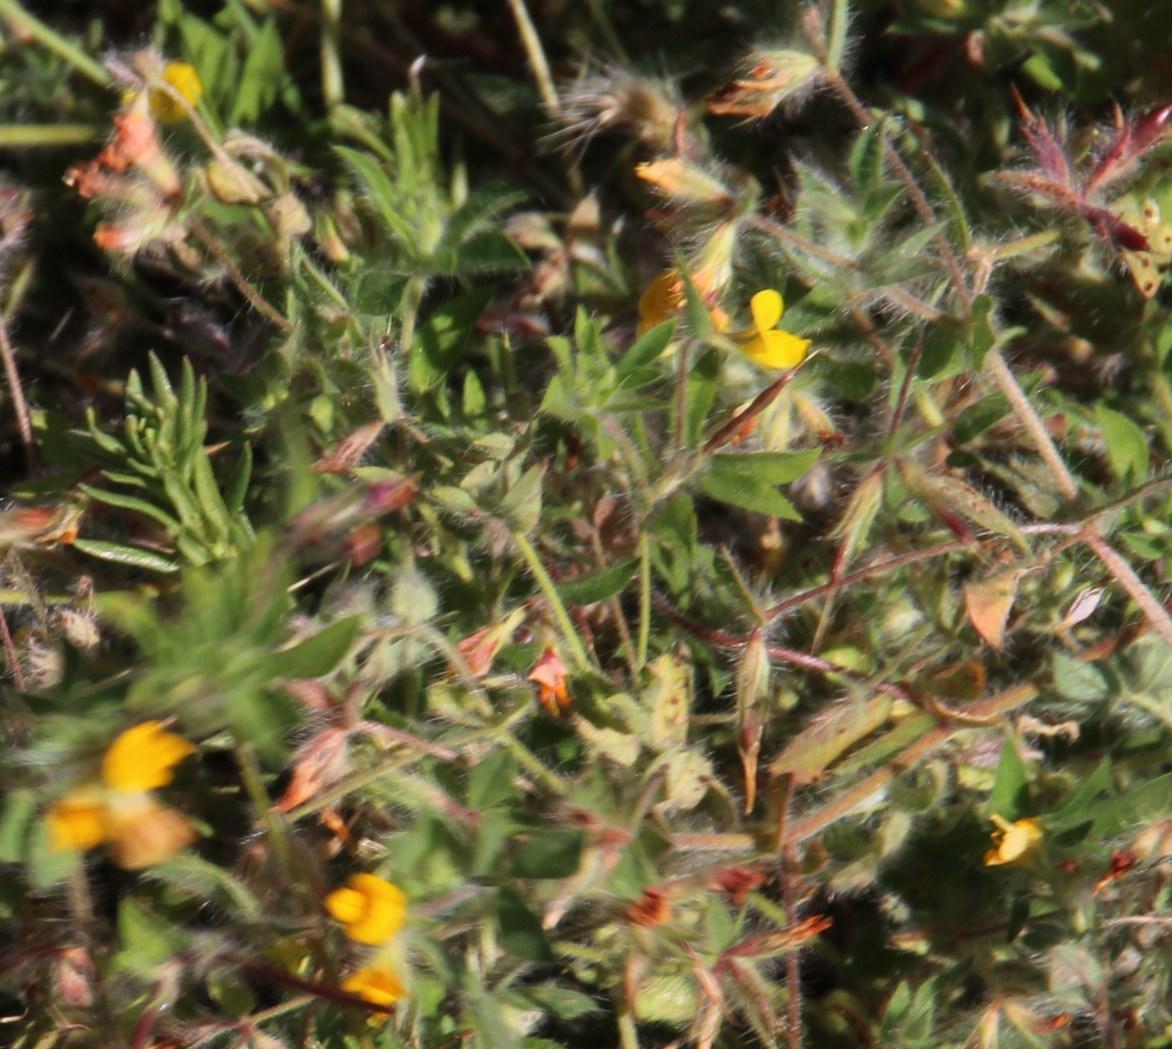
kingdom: Plantae
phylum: Tracheophyta
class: Magnoliopsida
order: Fabales
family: Fabaceae
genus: Lotus
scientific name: Lotus subbiflorus
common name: Hairy bird's-foot trefoil
